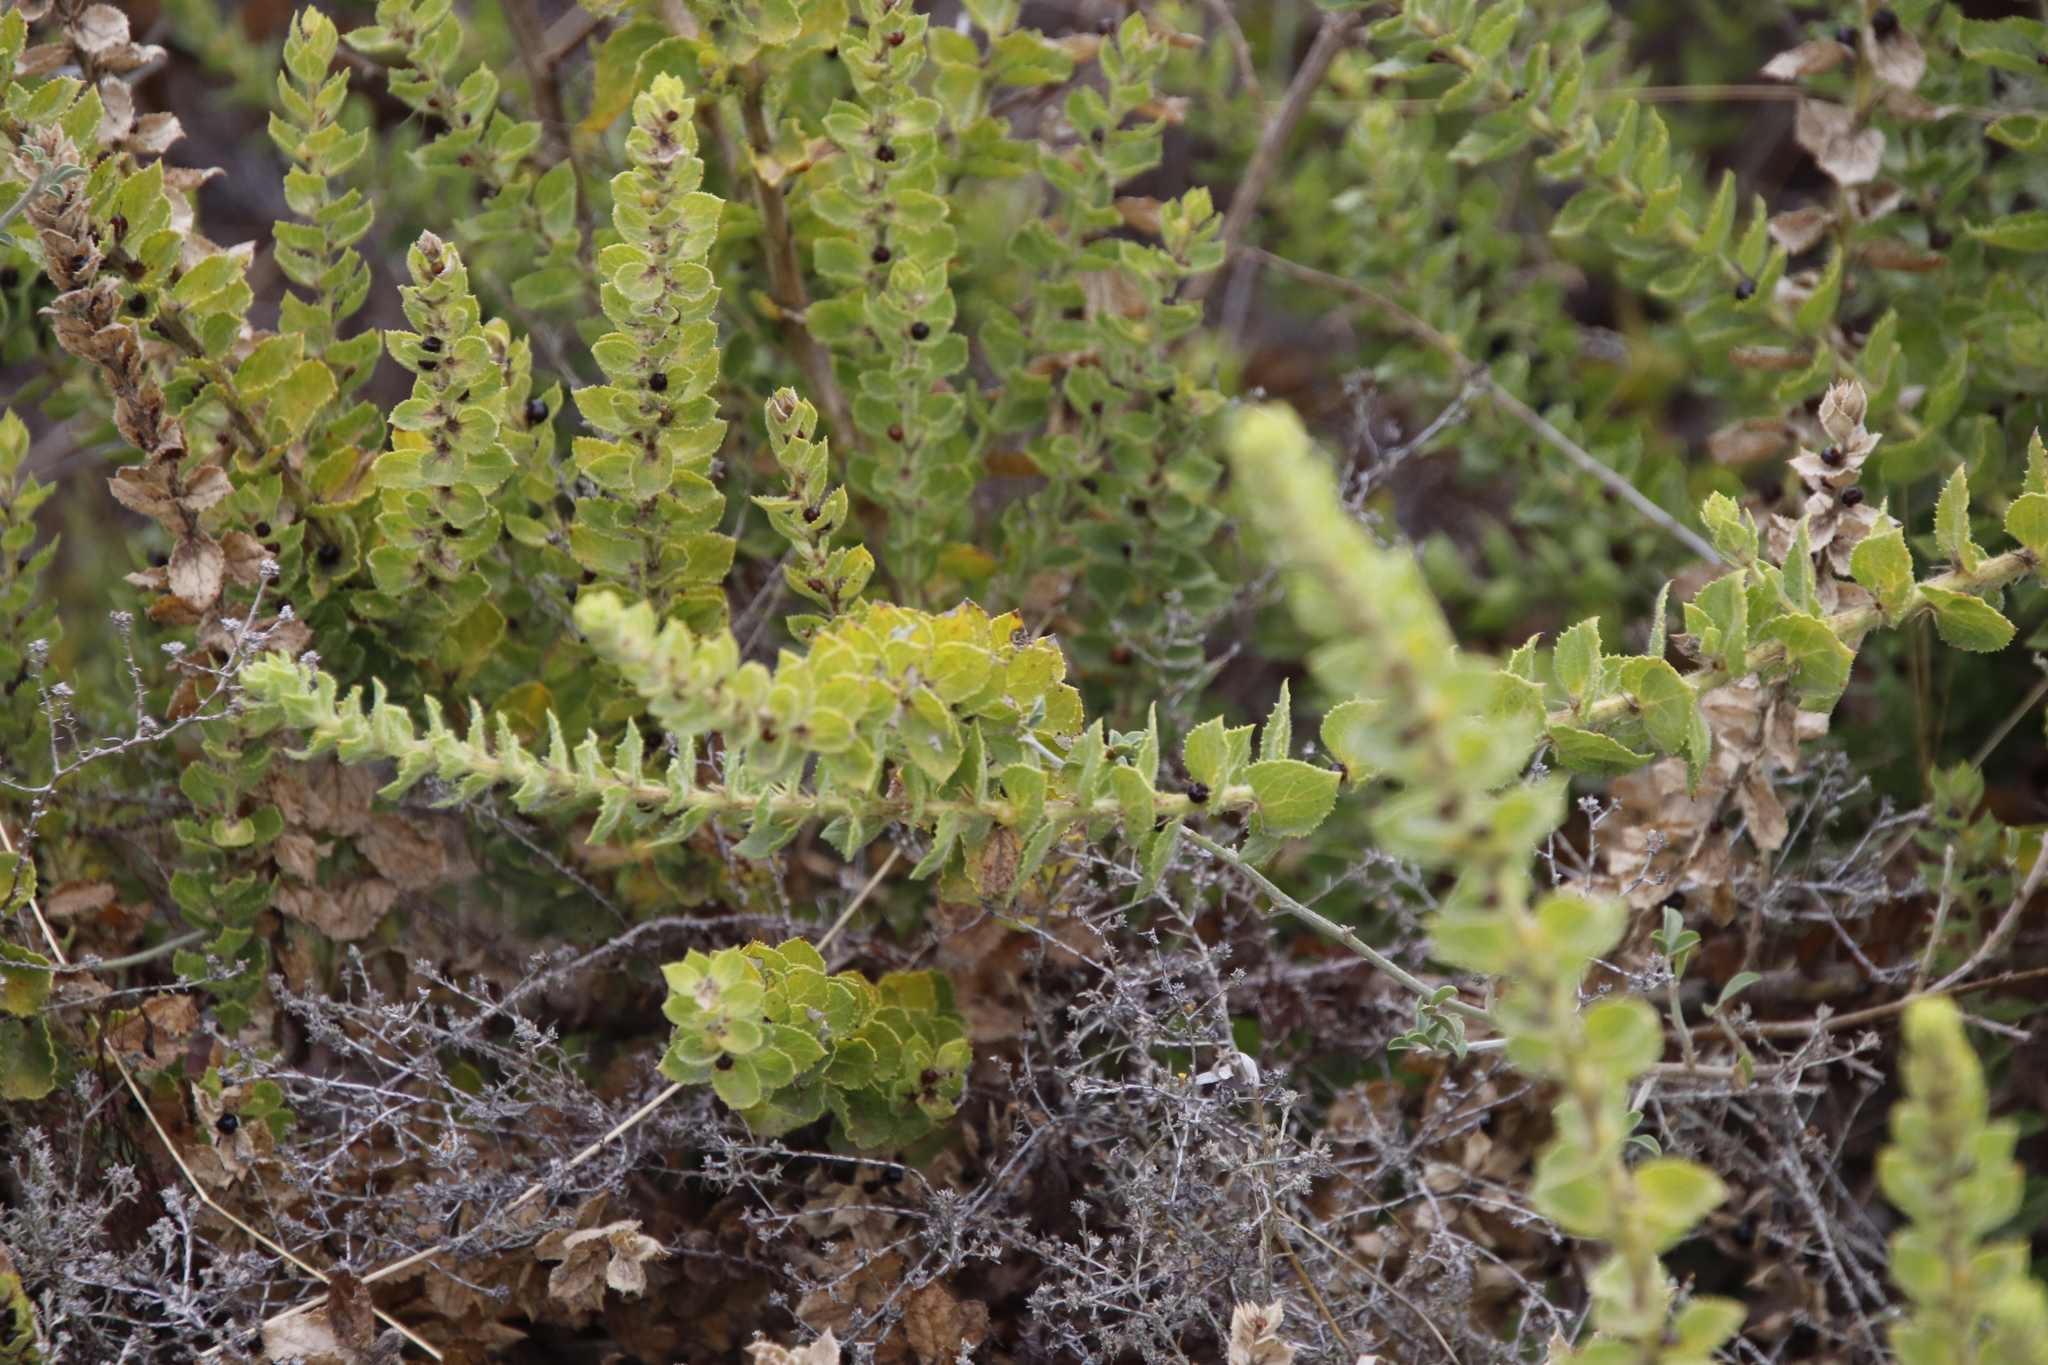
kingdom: Plantae
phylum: Tracheophyta
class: Magnoliopsida
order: Lamiales
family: Scrophulariaceae
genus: Oftia
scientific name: Oftia africana
